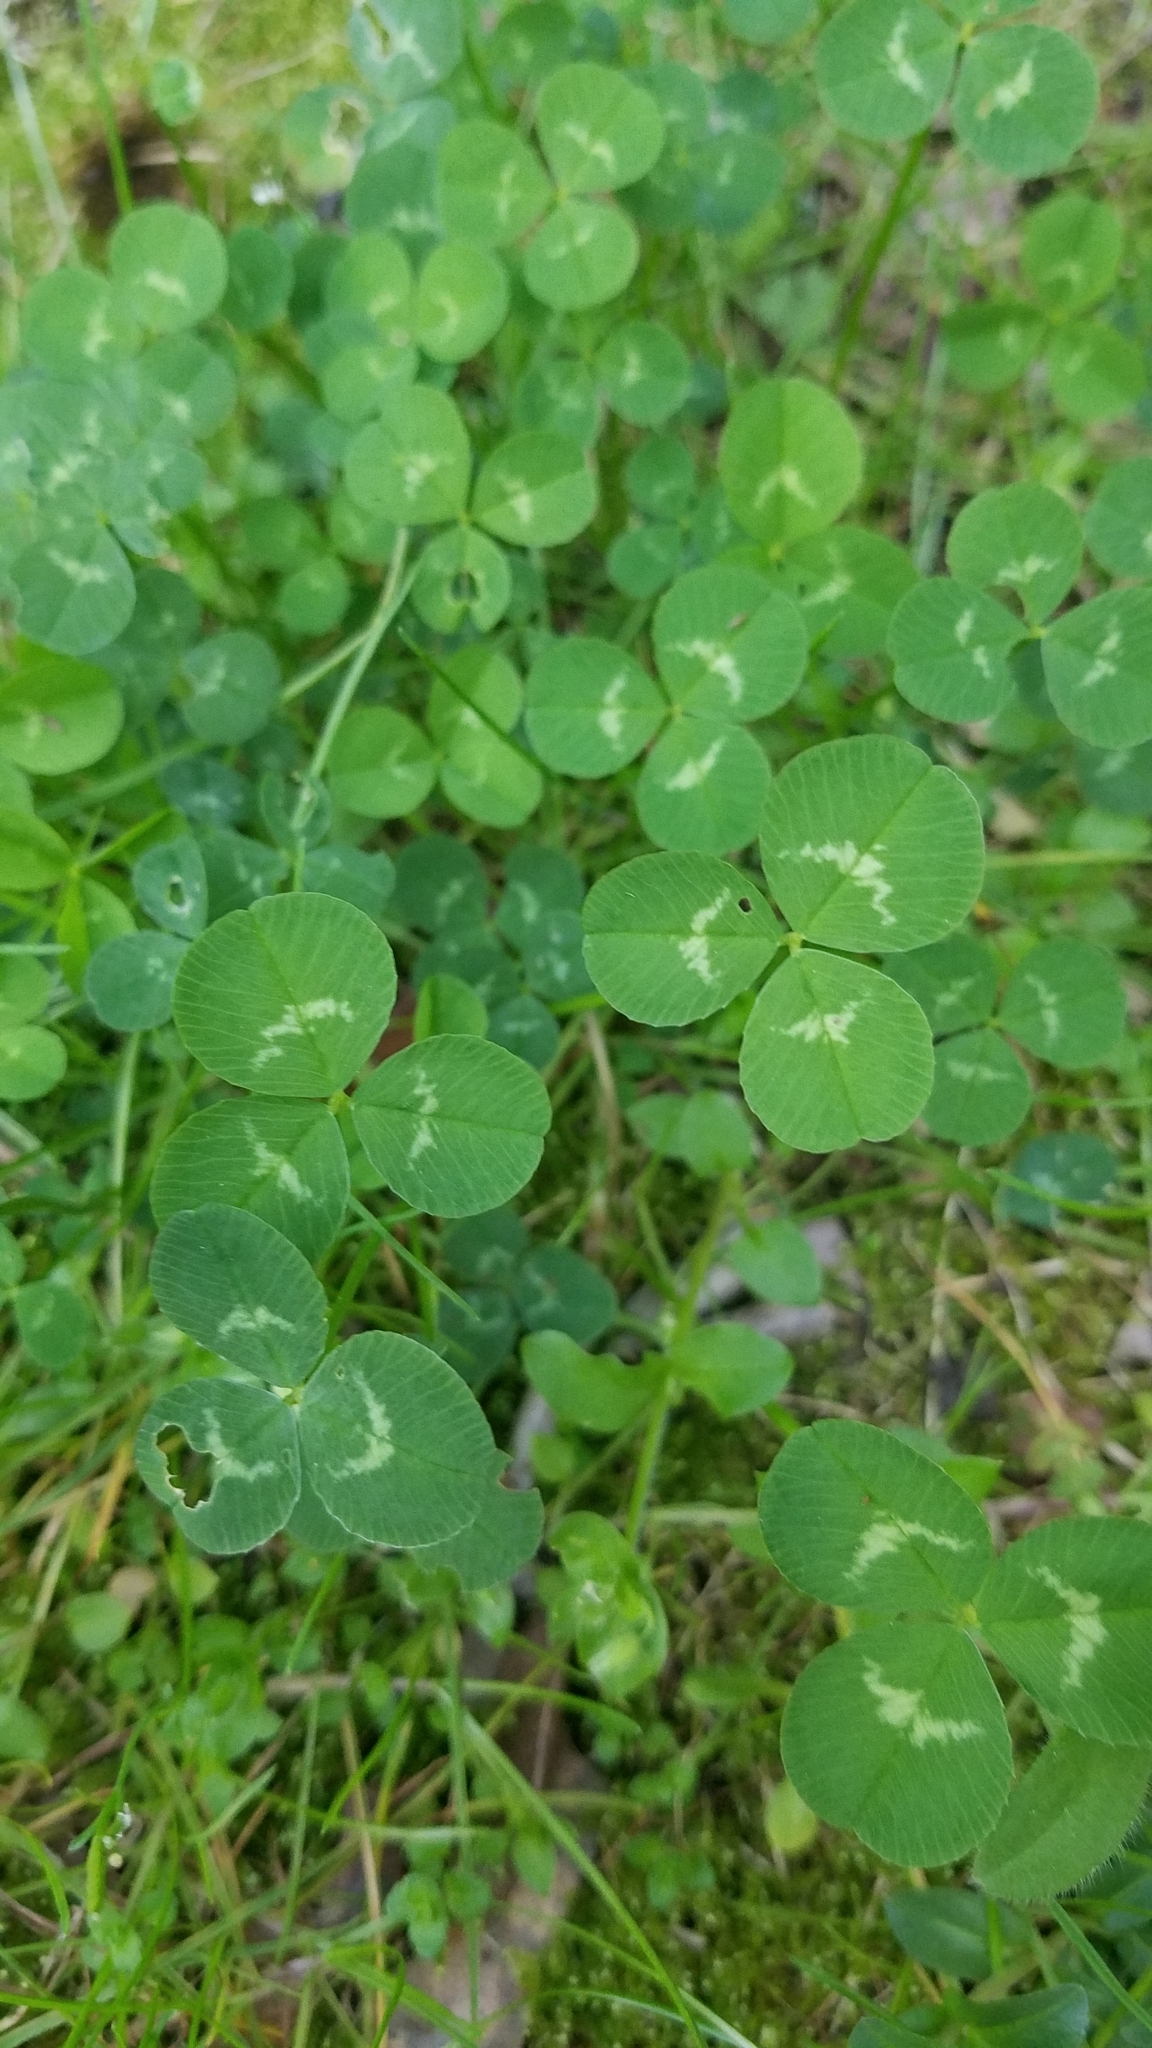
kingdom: Plantae
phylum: Tracheophyta
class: Magnoliopsida
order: Fabales
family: Fabaceae
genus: Trifolium
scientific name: Trifolium repens
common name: White clover
